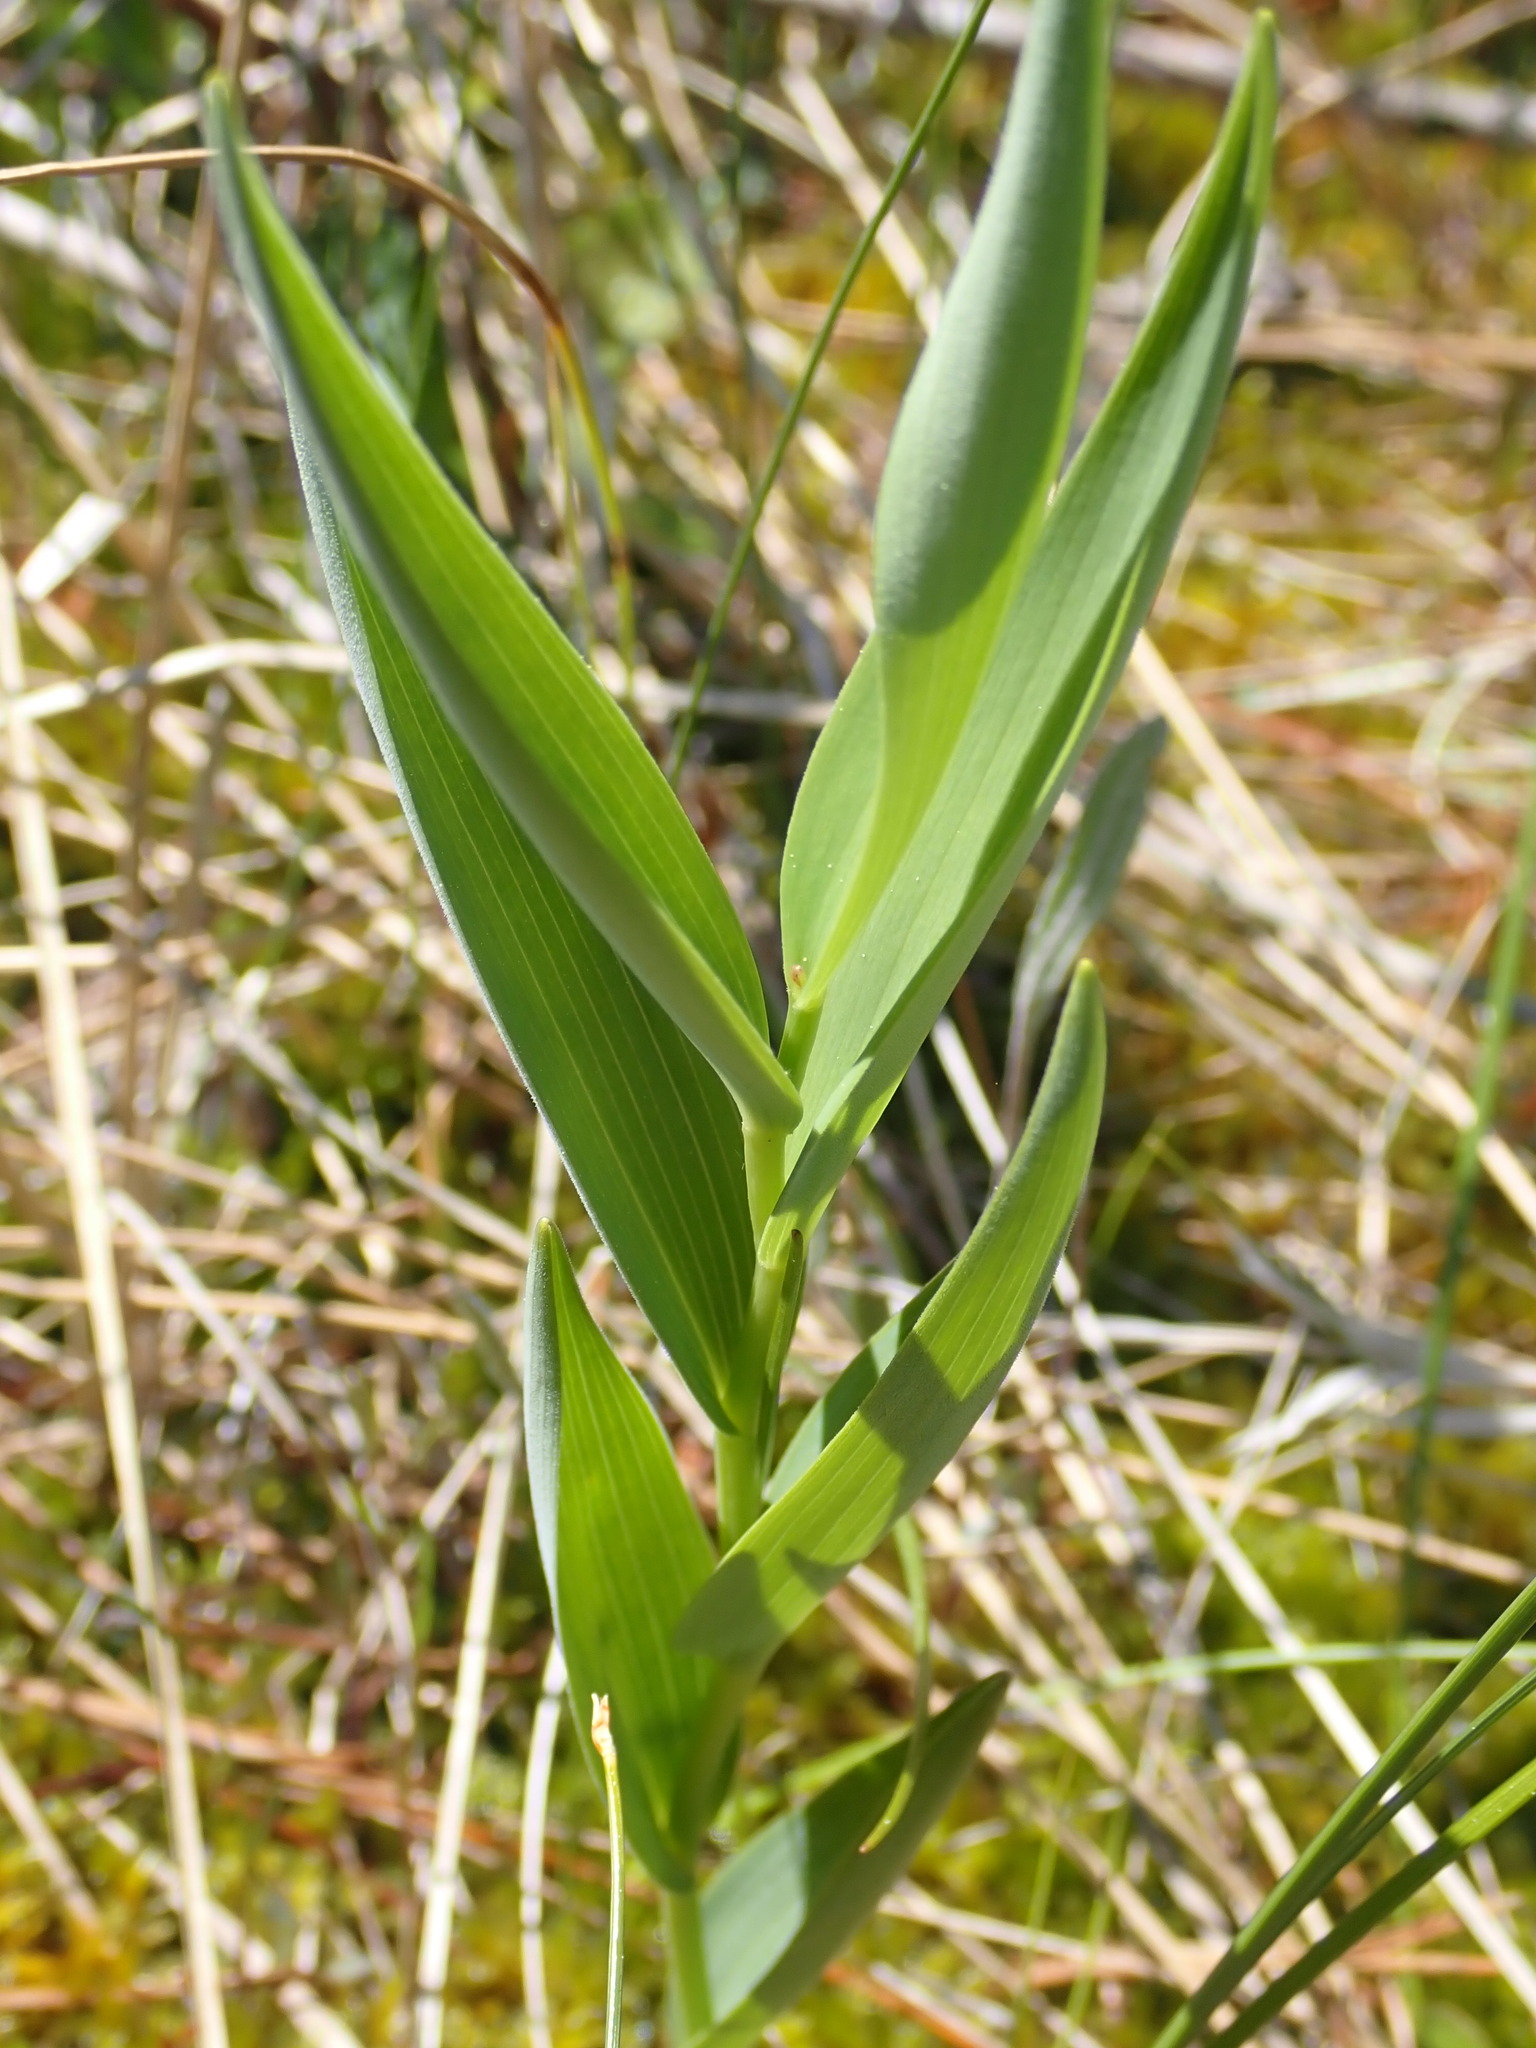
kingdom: Plantae
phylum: Tracheophyta
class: Liliopsida
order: Asparagales
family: Orchidaceae
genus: Epipactis
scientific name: Epipactis gigantea
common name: Chatterbox
